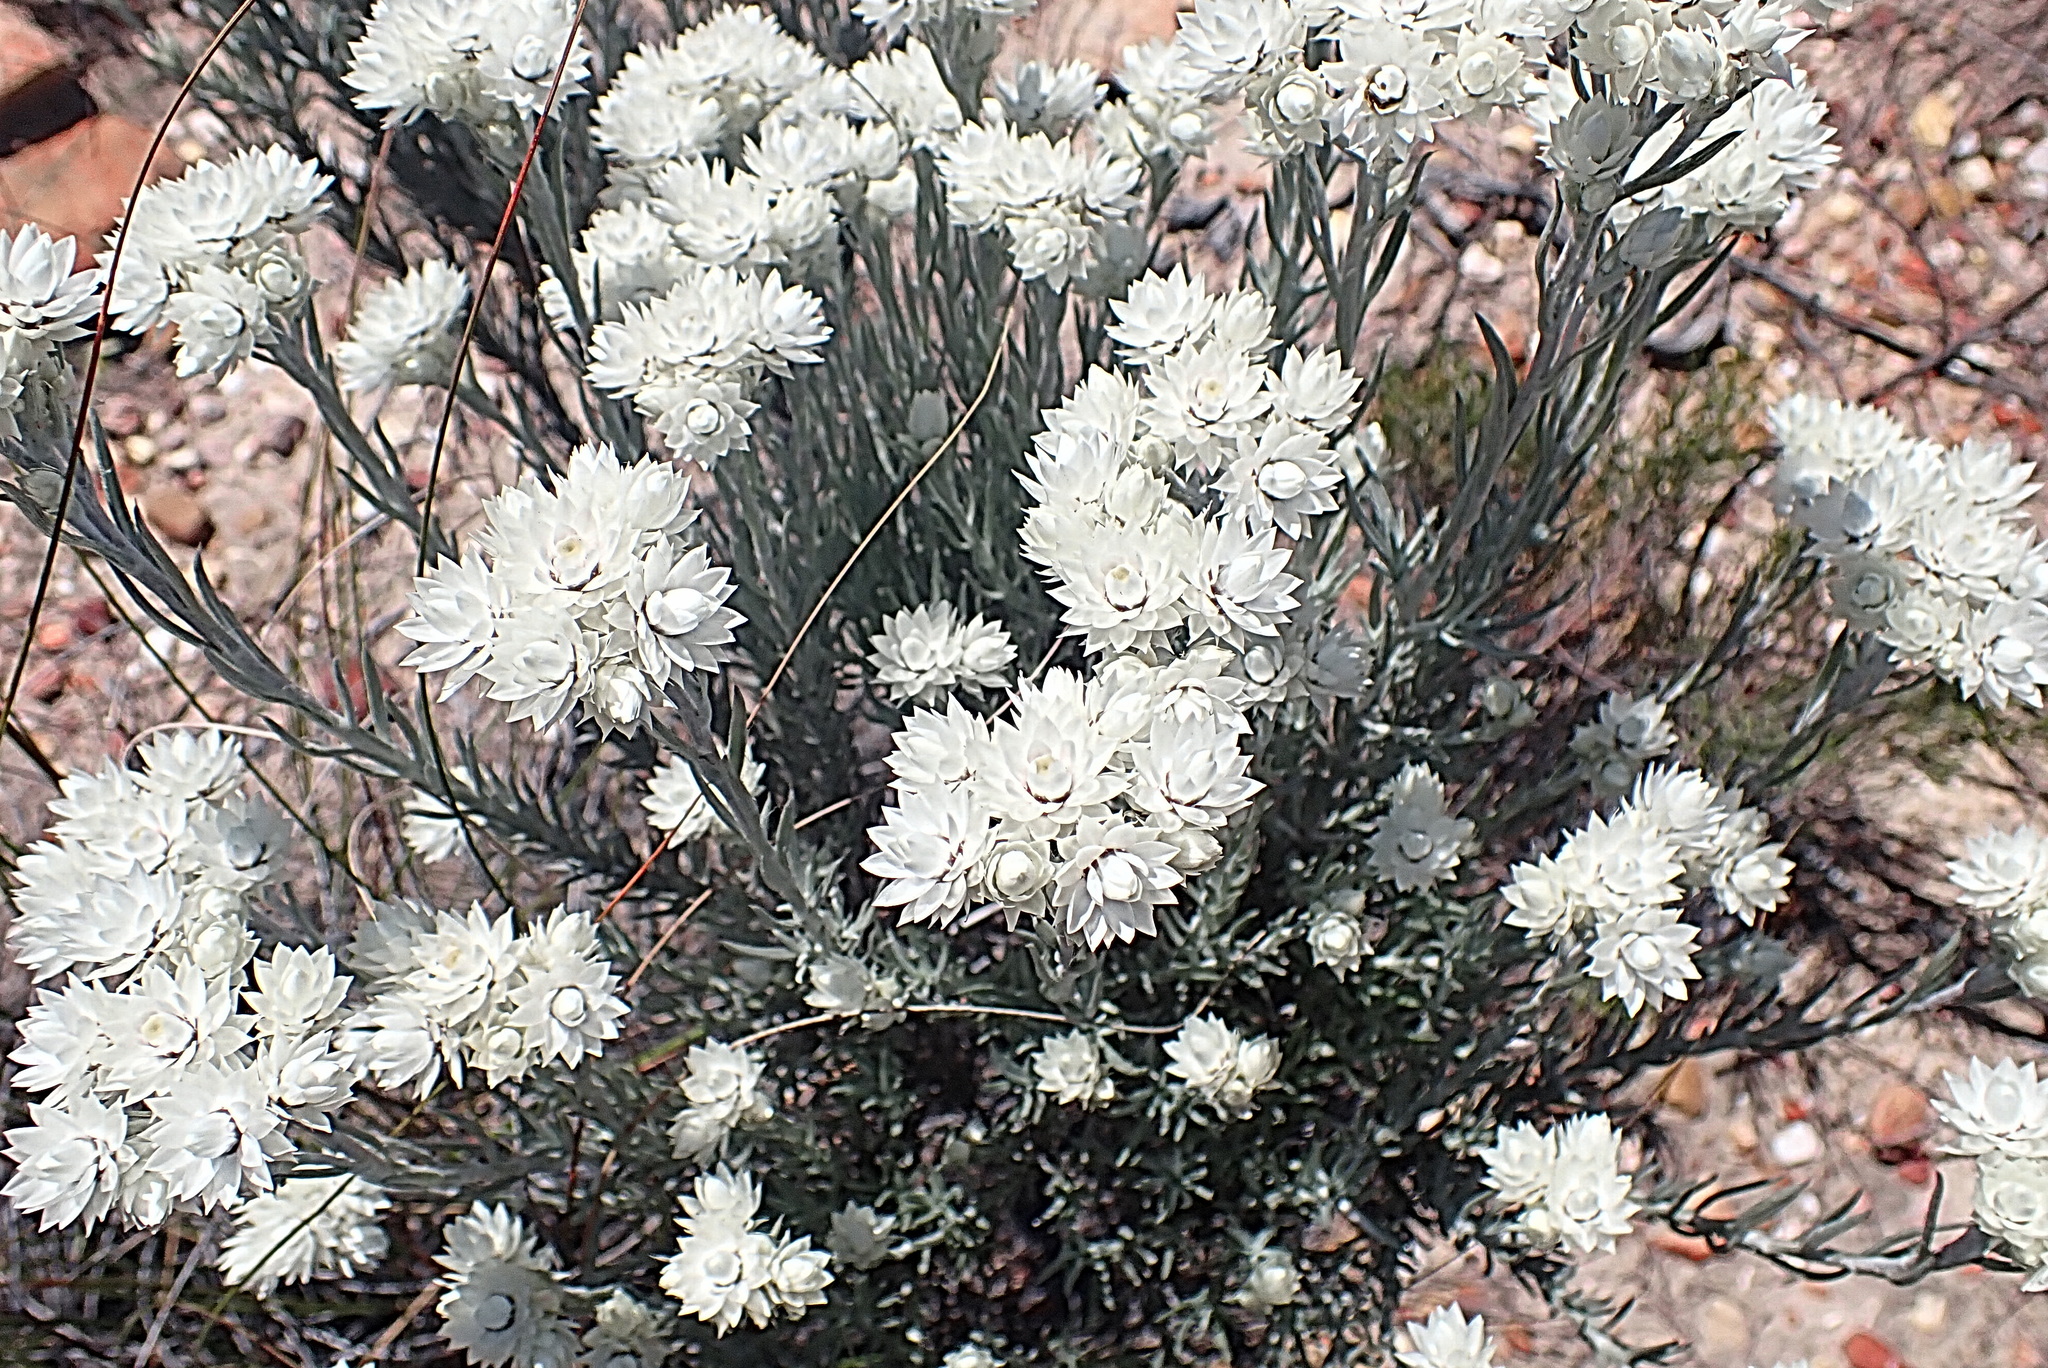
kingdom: Plantae
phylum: Tracheophyta
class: Magnoliopsida
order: Asterales
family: Asteraceae
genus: Achyranthemum
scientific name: Achyranthemum paniculatum
